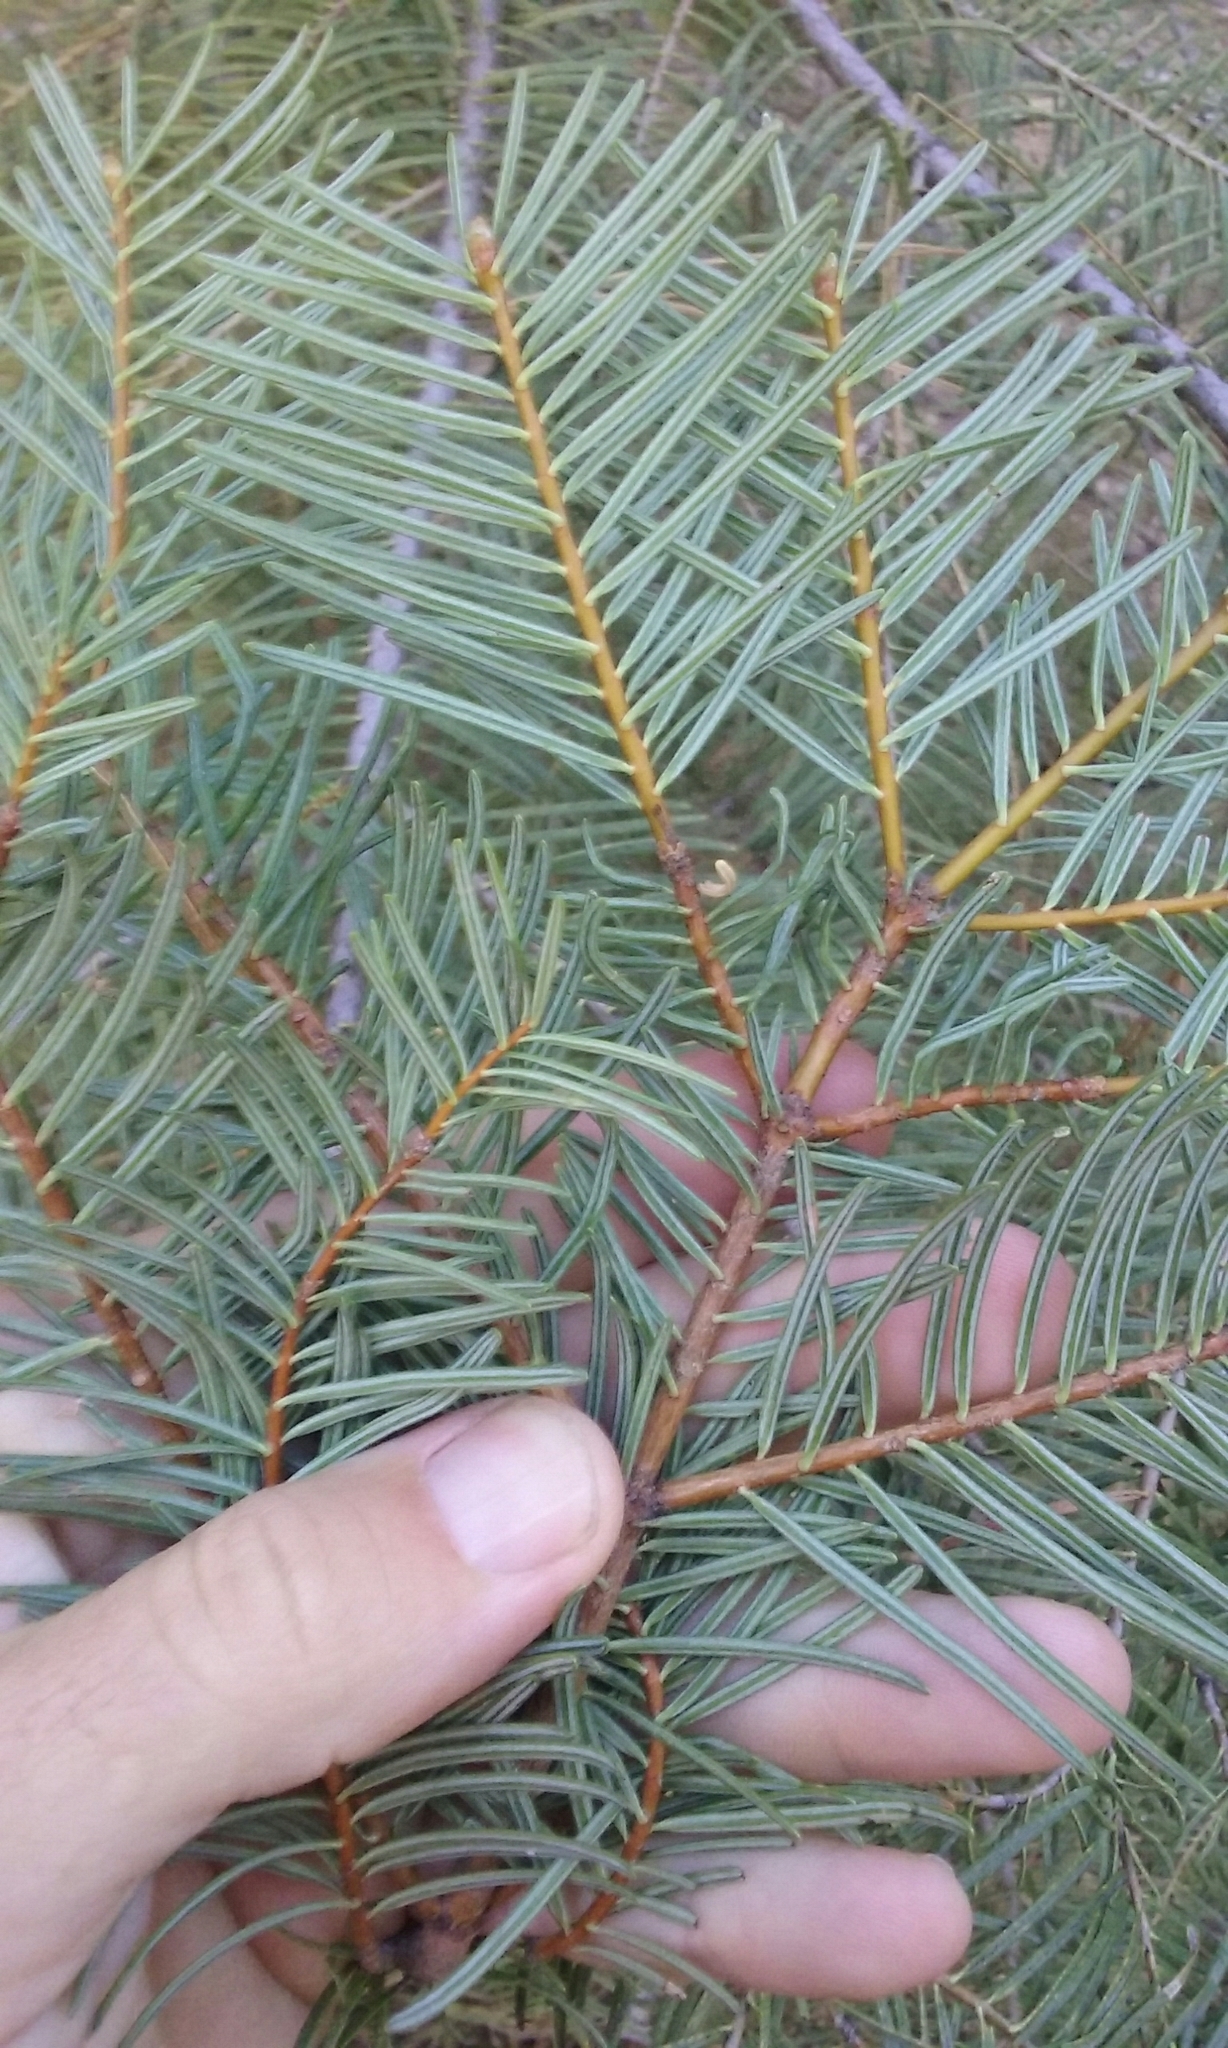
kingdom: Plantae
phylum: Tracheophyta
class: Pinopsida
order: Pinales
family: Pinaceae
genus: Abies
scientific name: Abies concolor
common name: Colorado fir
